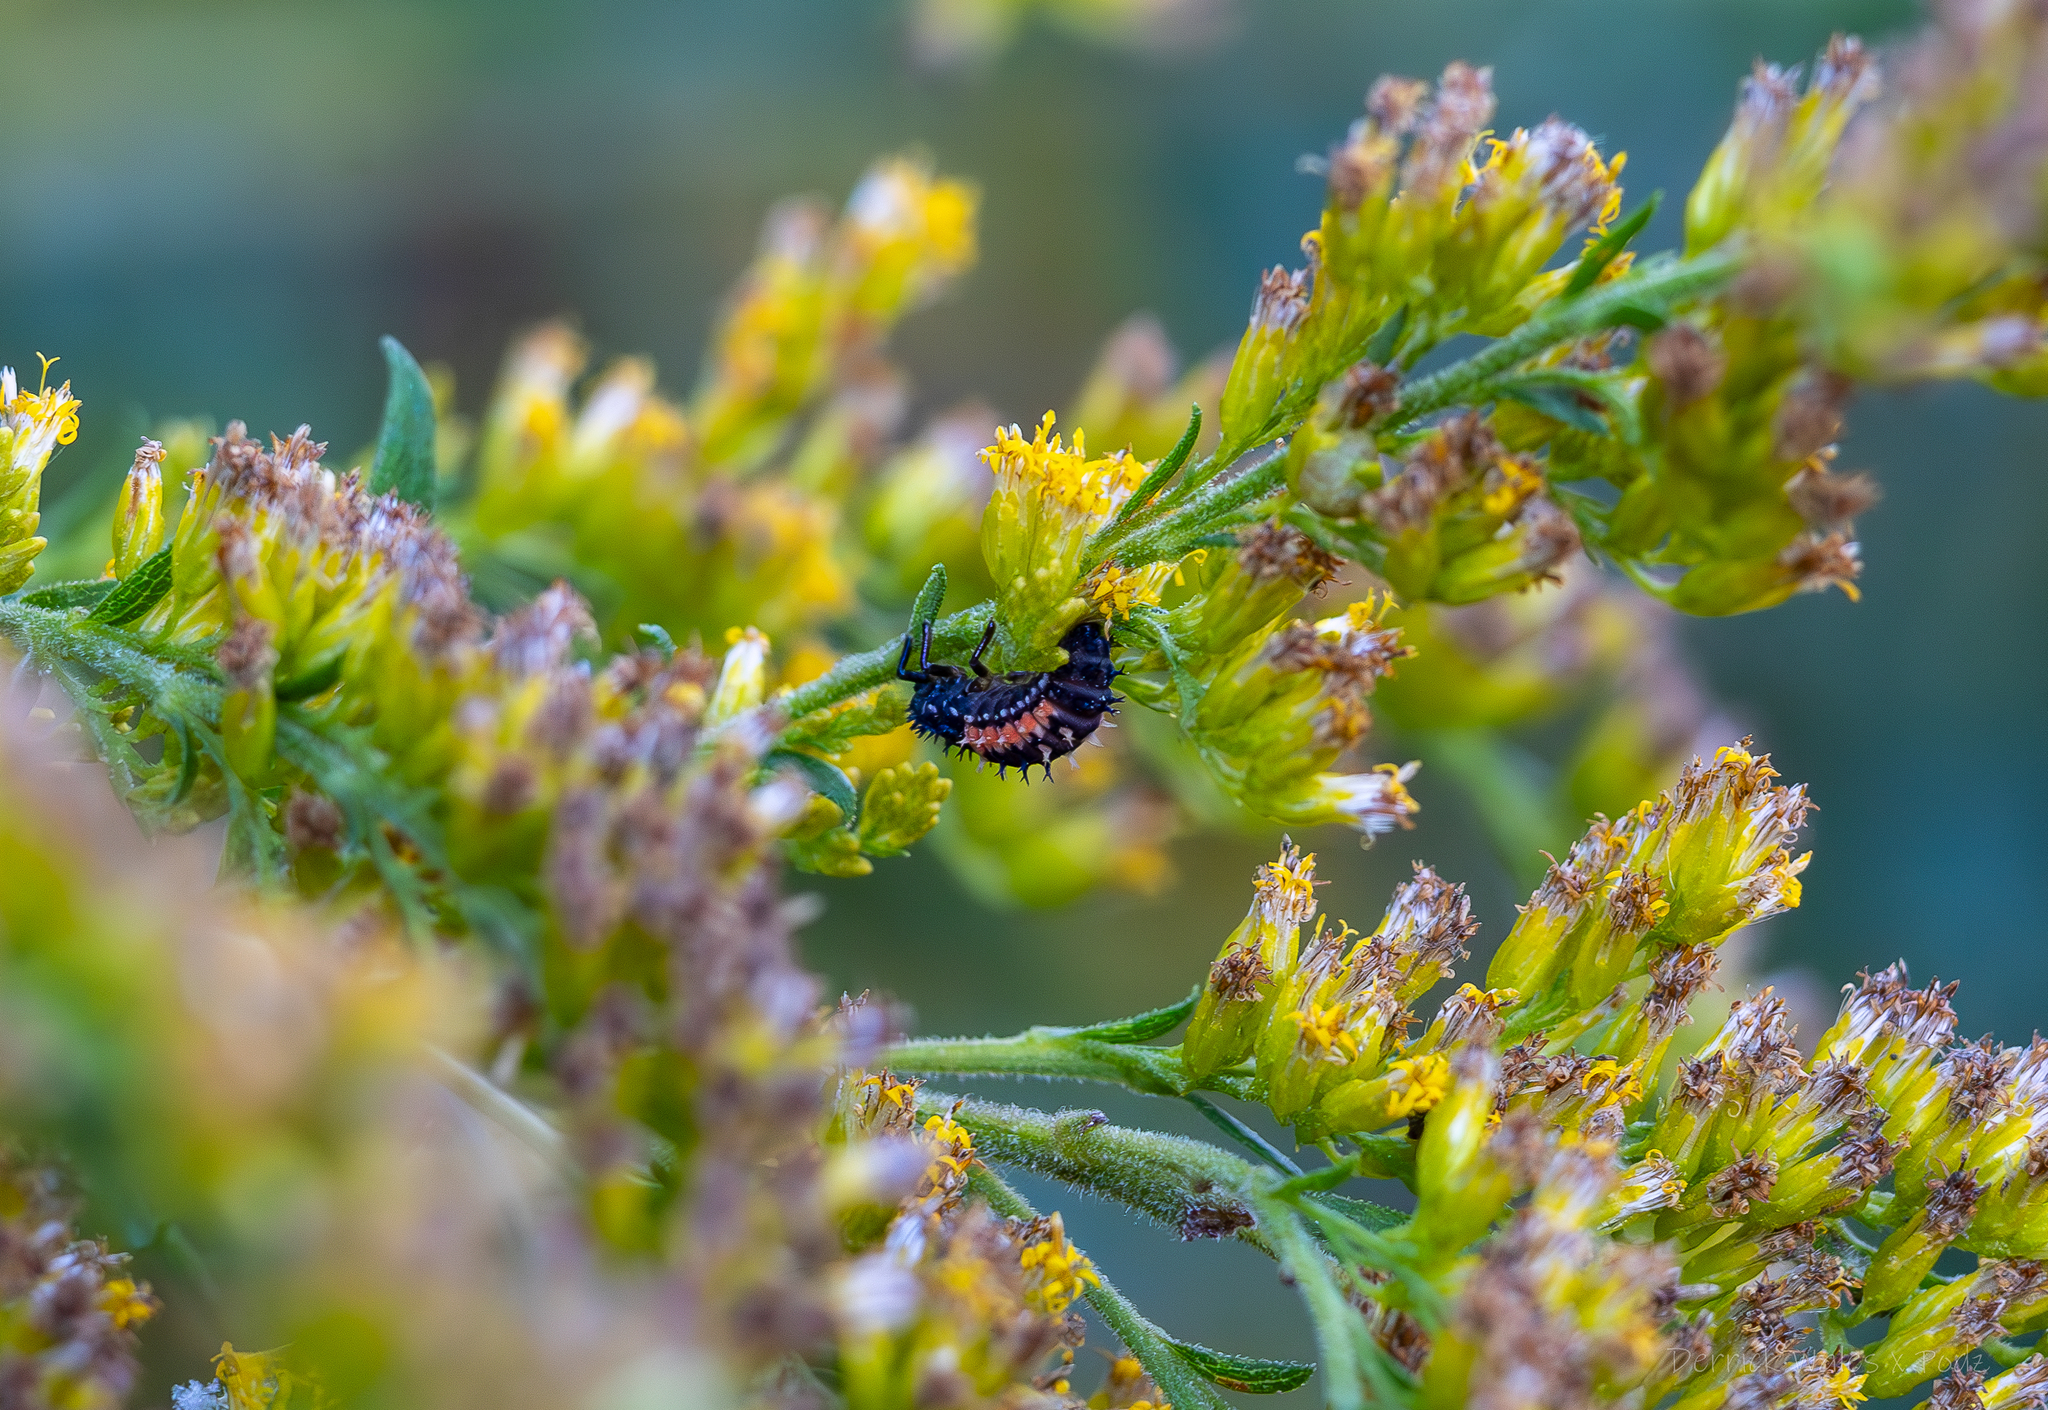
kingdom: Animalia
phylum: Arthropoda
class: Insecta
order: Coleoptera
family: Coccinellidae
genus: Harmonia
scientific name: Harmonia axyridis
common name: Harlequin ladybird
